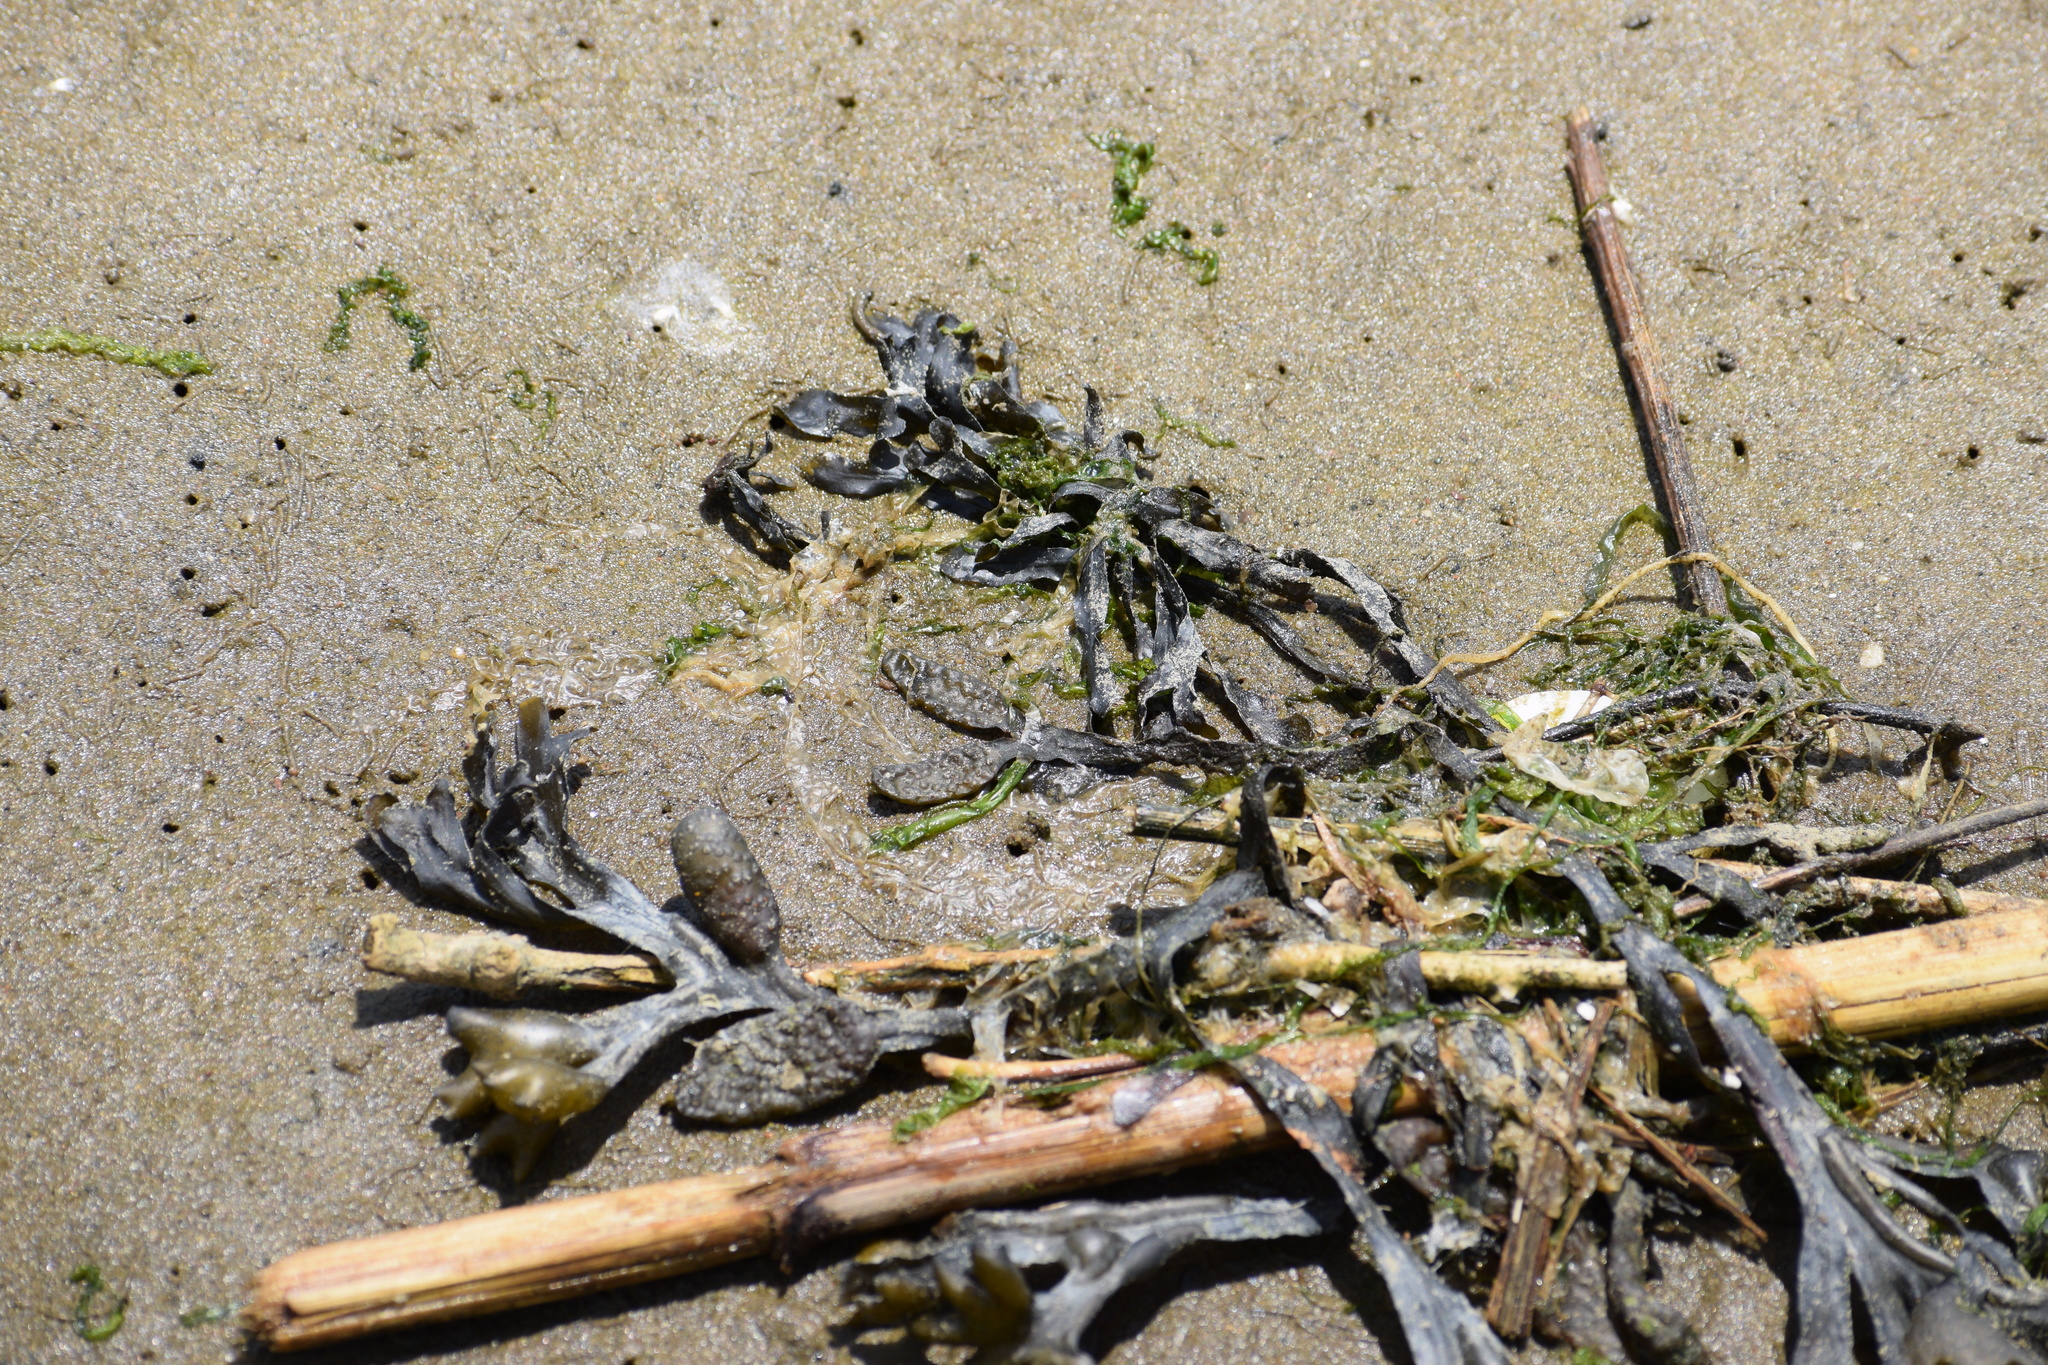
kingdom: Chromista
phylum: Ochrophyta
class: Phaeophyceae
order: Fucales
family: Fucaceae
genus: Fucus
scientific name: Fucus vesiculosus
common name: Bladder wrack
